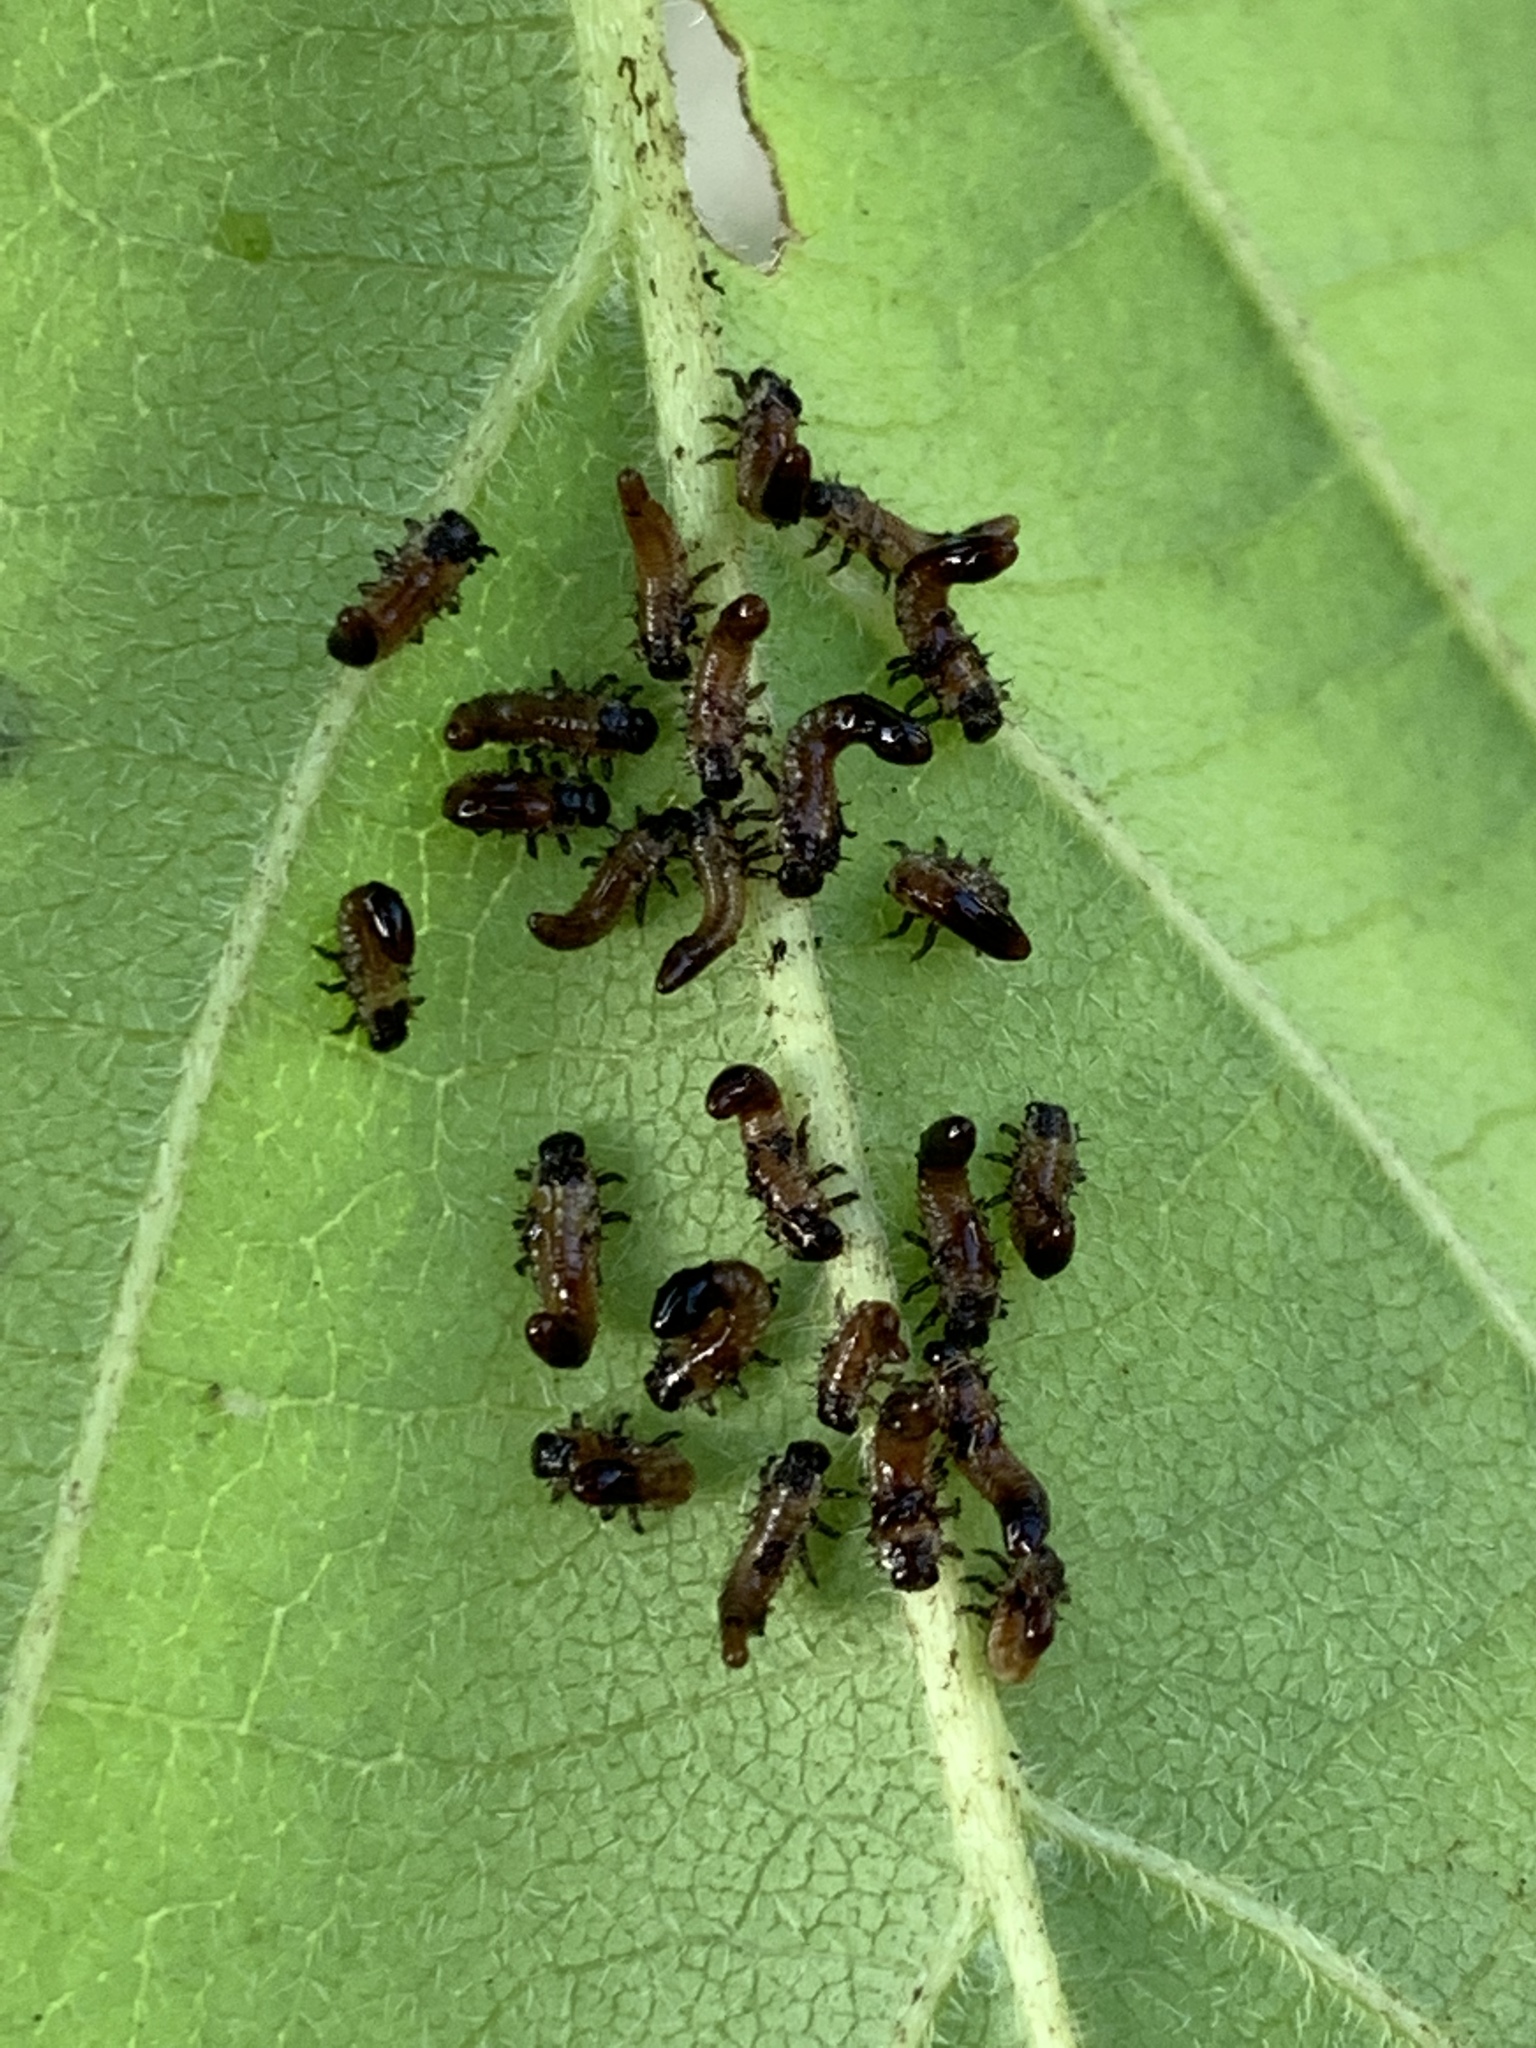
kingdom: Animalia
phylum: Arthropoda
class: Insecta
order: Coleoptera
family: Chrysomelidae
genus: Eurypepla
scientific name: Eurypepla calochroma
